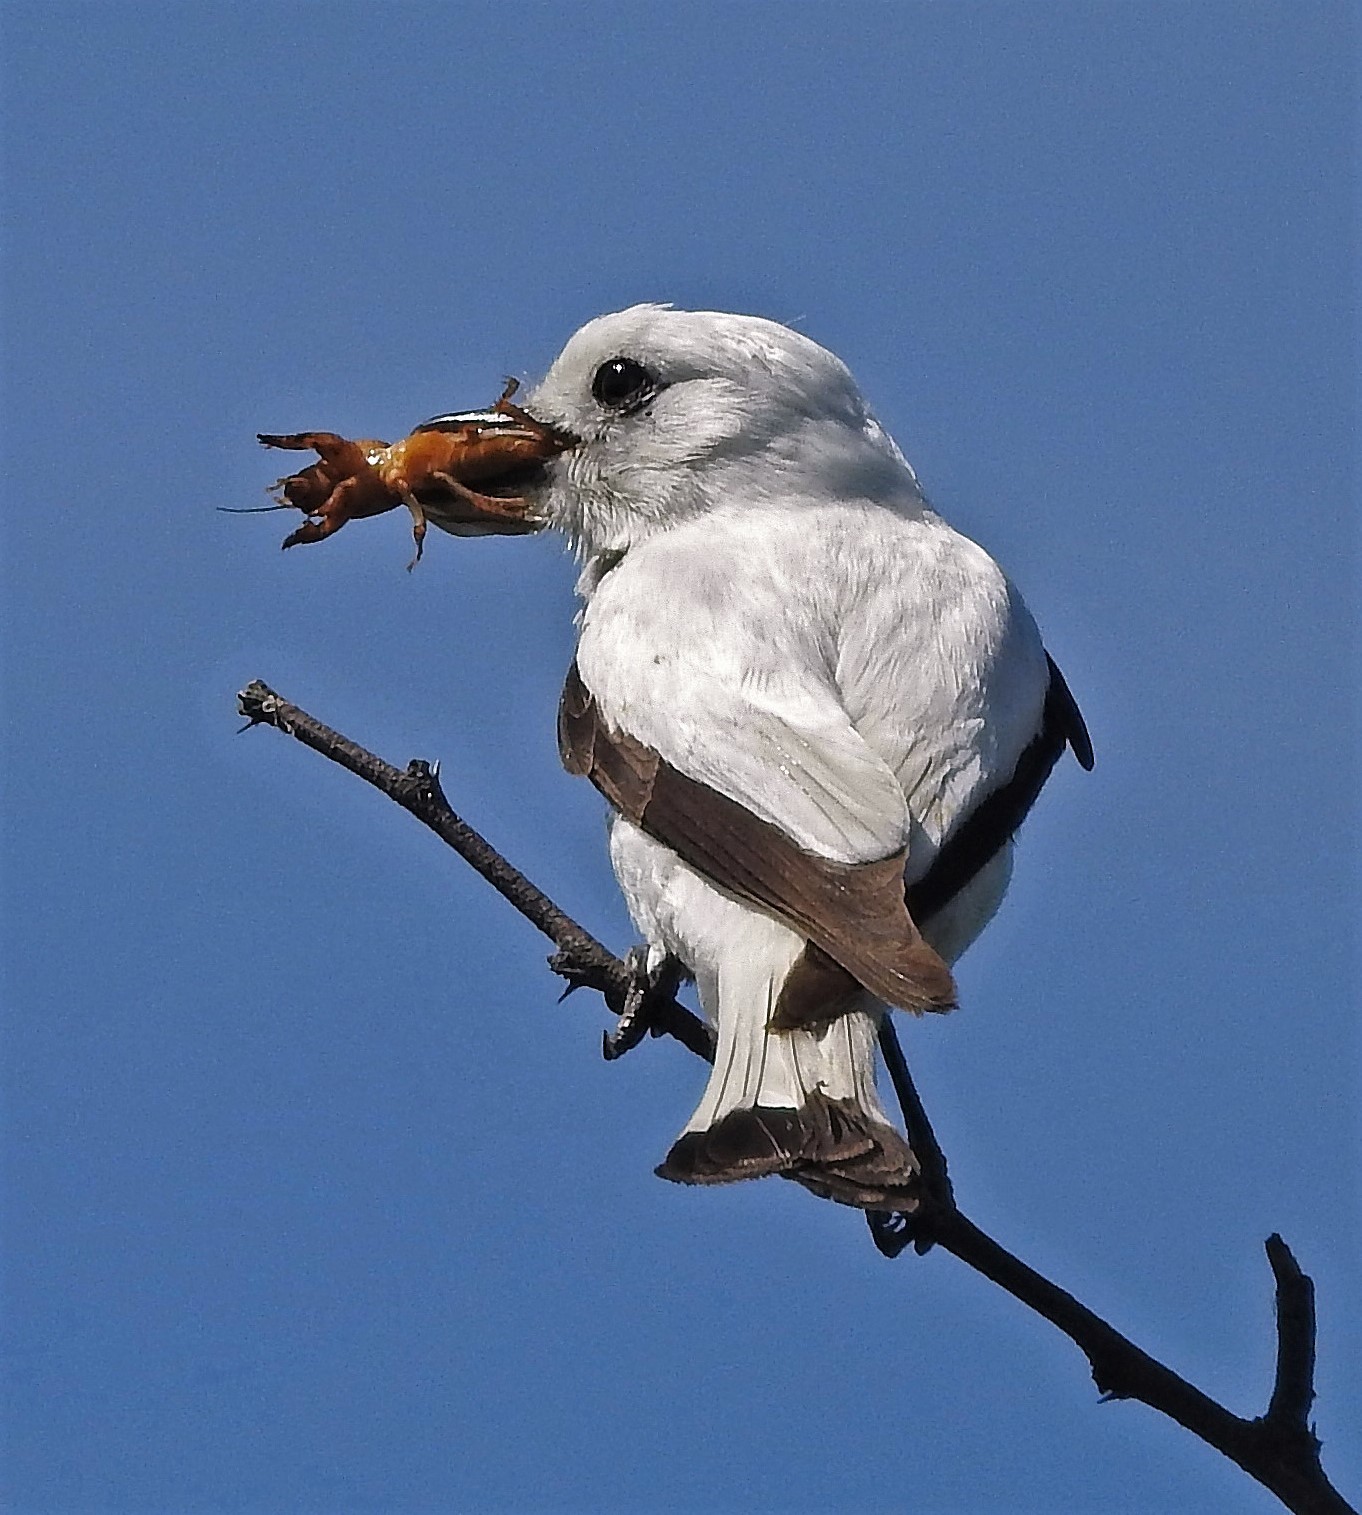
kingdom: Animalia
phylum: Chordata
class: Aves
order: Passeriformes
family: Tyrannidae
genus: Xolmis
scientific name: Xolmis irupero
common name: White monjita
